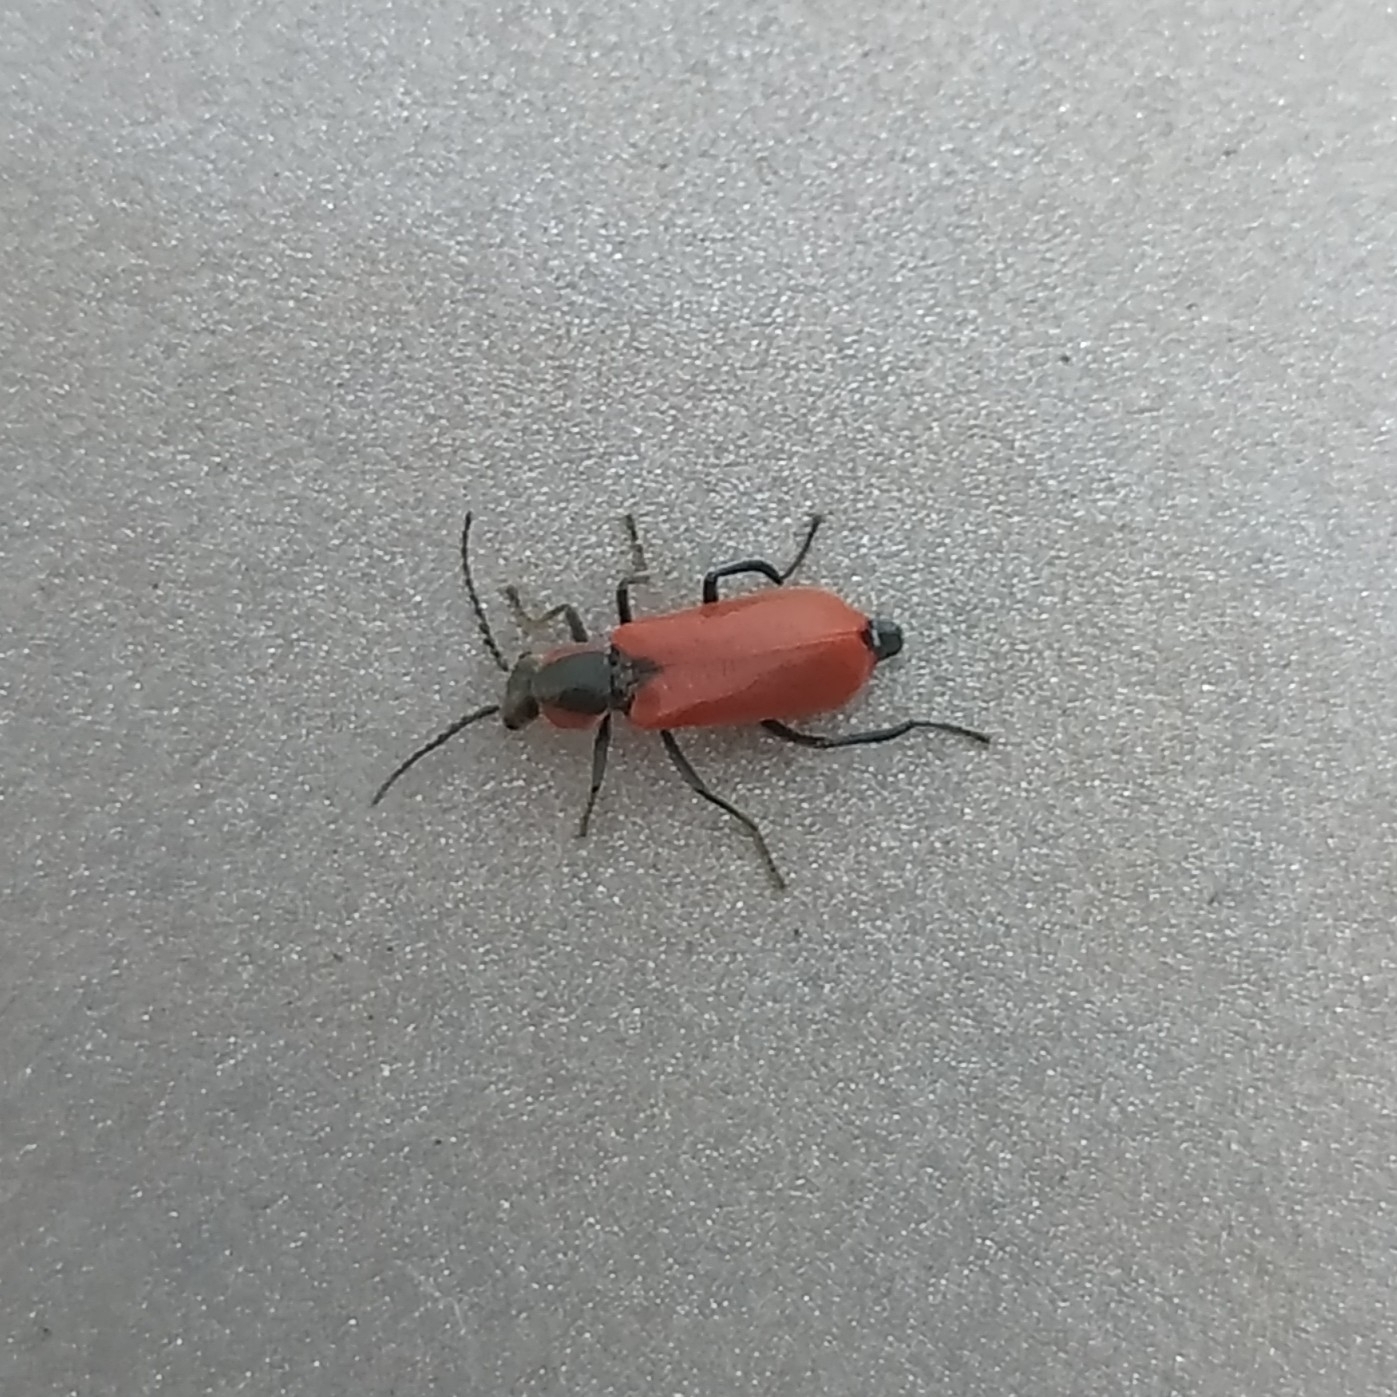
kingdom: Animalia
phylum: Arthropoda
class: Insecta
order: Coleoptera
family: Melyridae
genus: Anthocomus
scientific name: Anthocomus rufus
